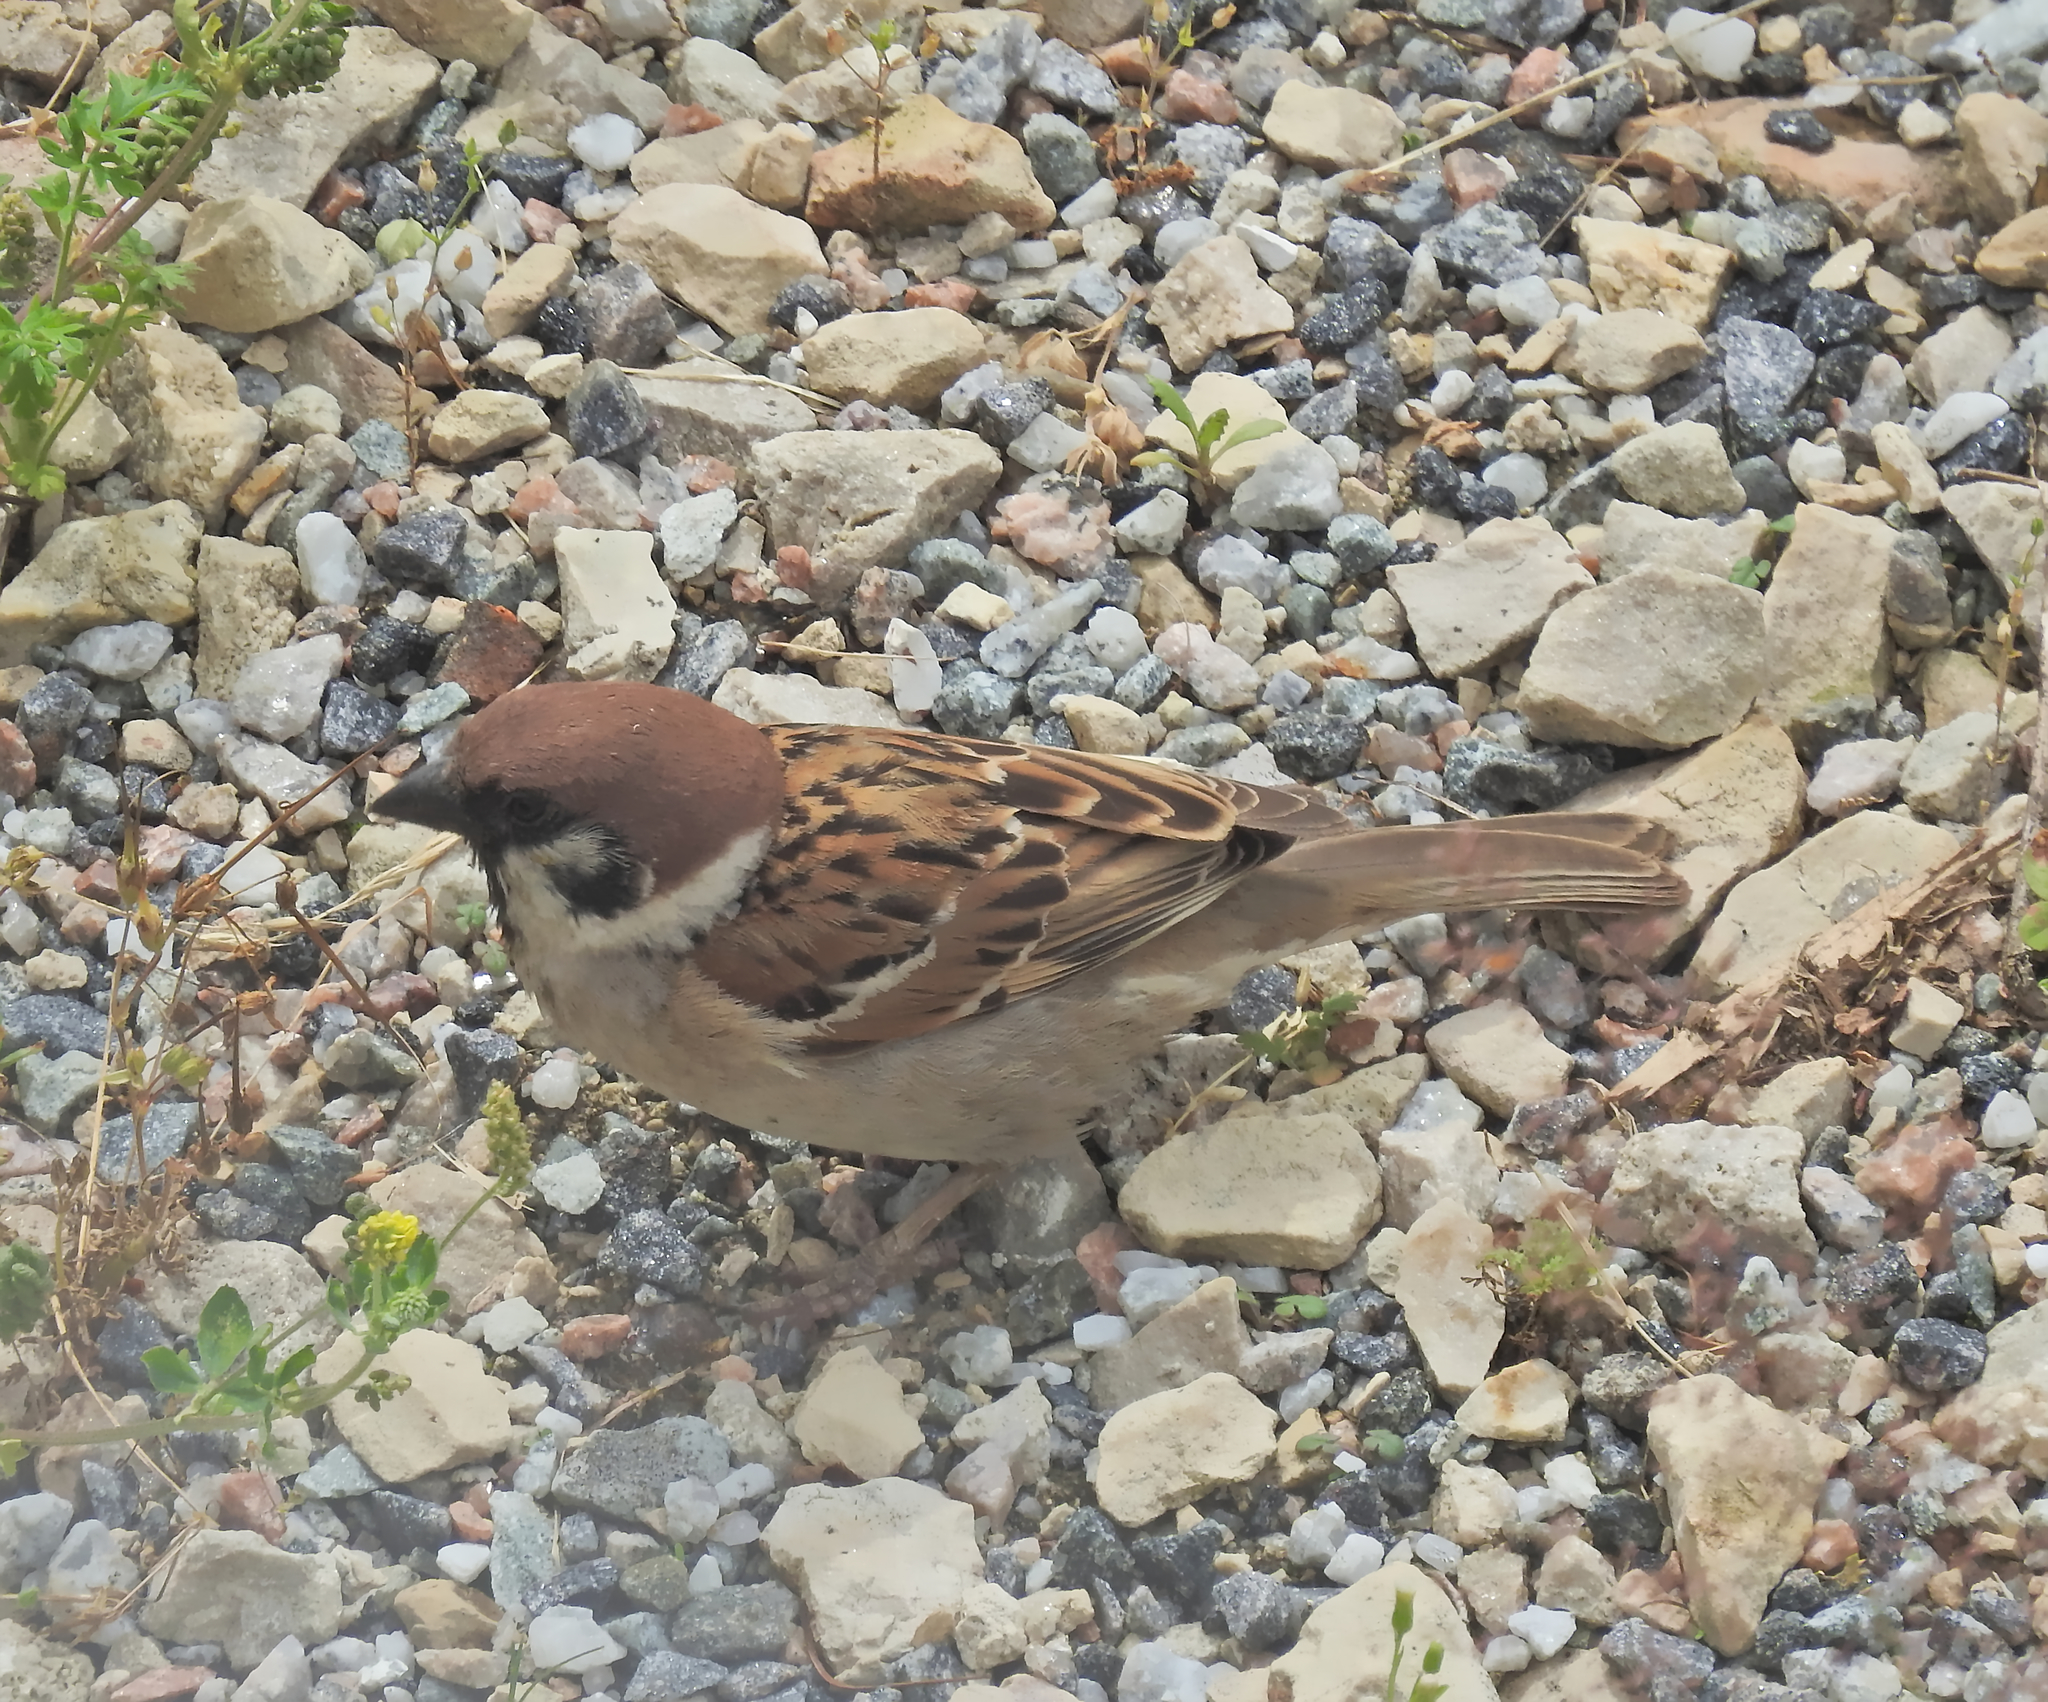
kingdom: Animalia
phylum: Chordata
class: Aves
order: Passeriformes
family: Passeridae
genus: Passer
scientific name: Passer montanus
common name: Eurasian tree sparrow
